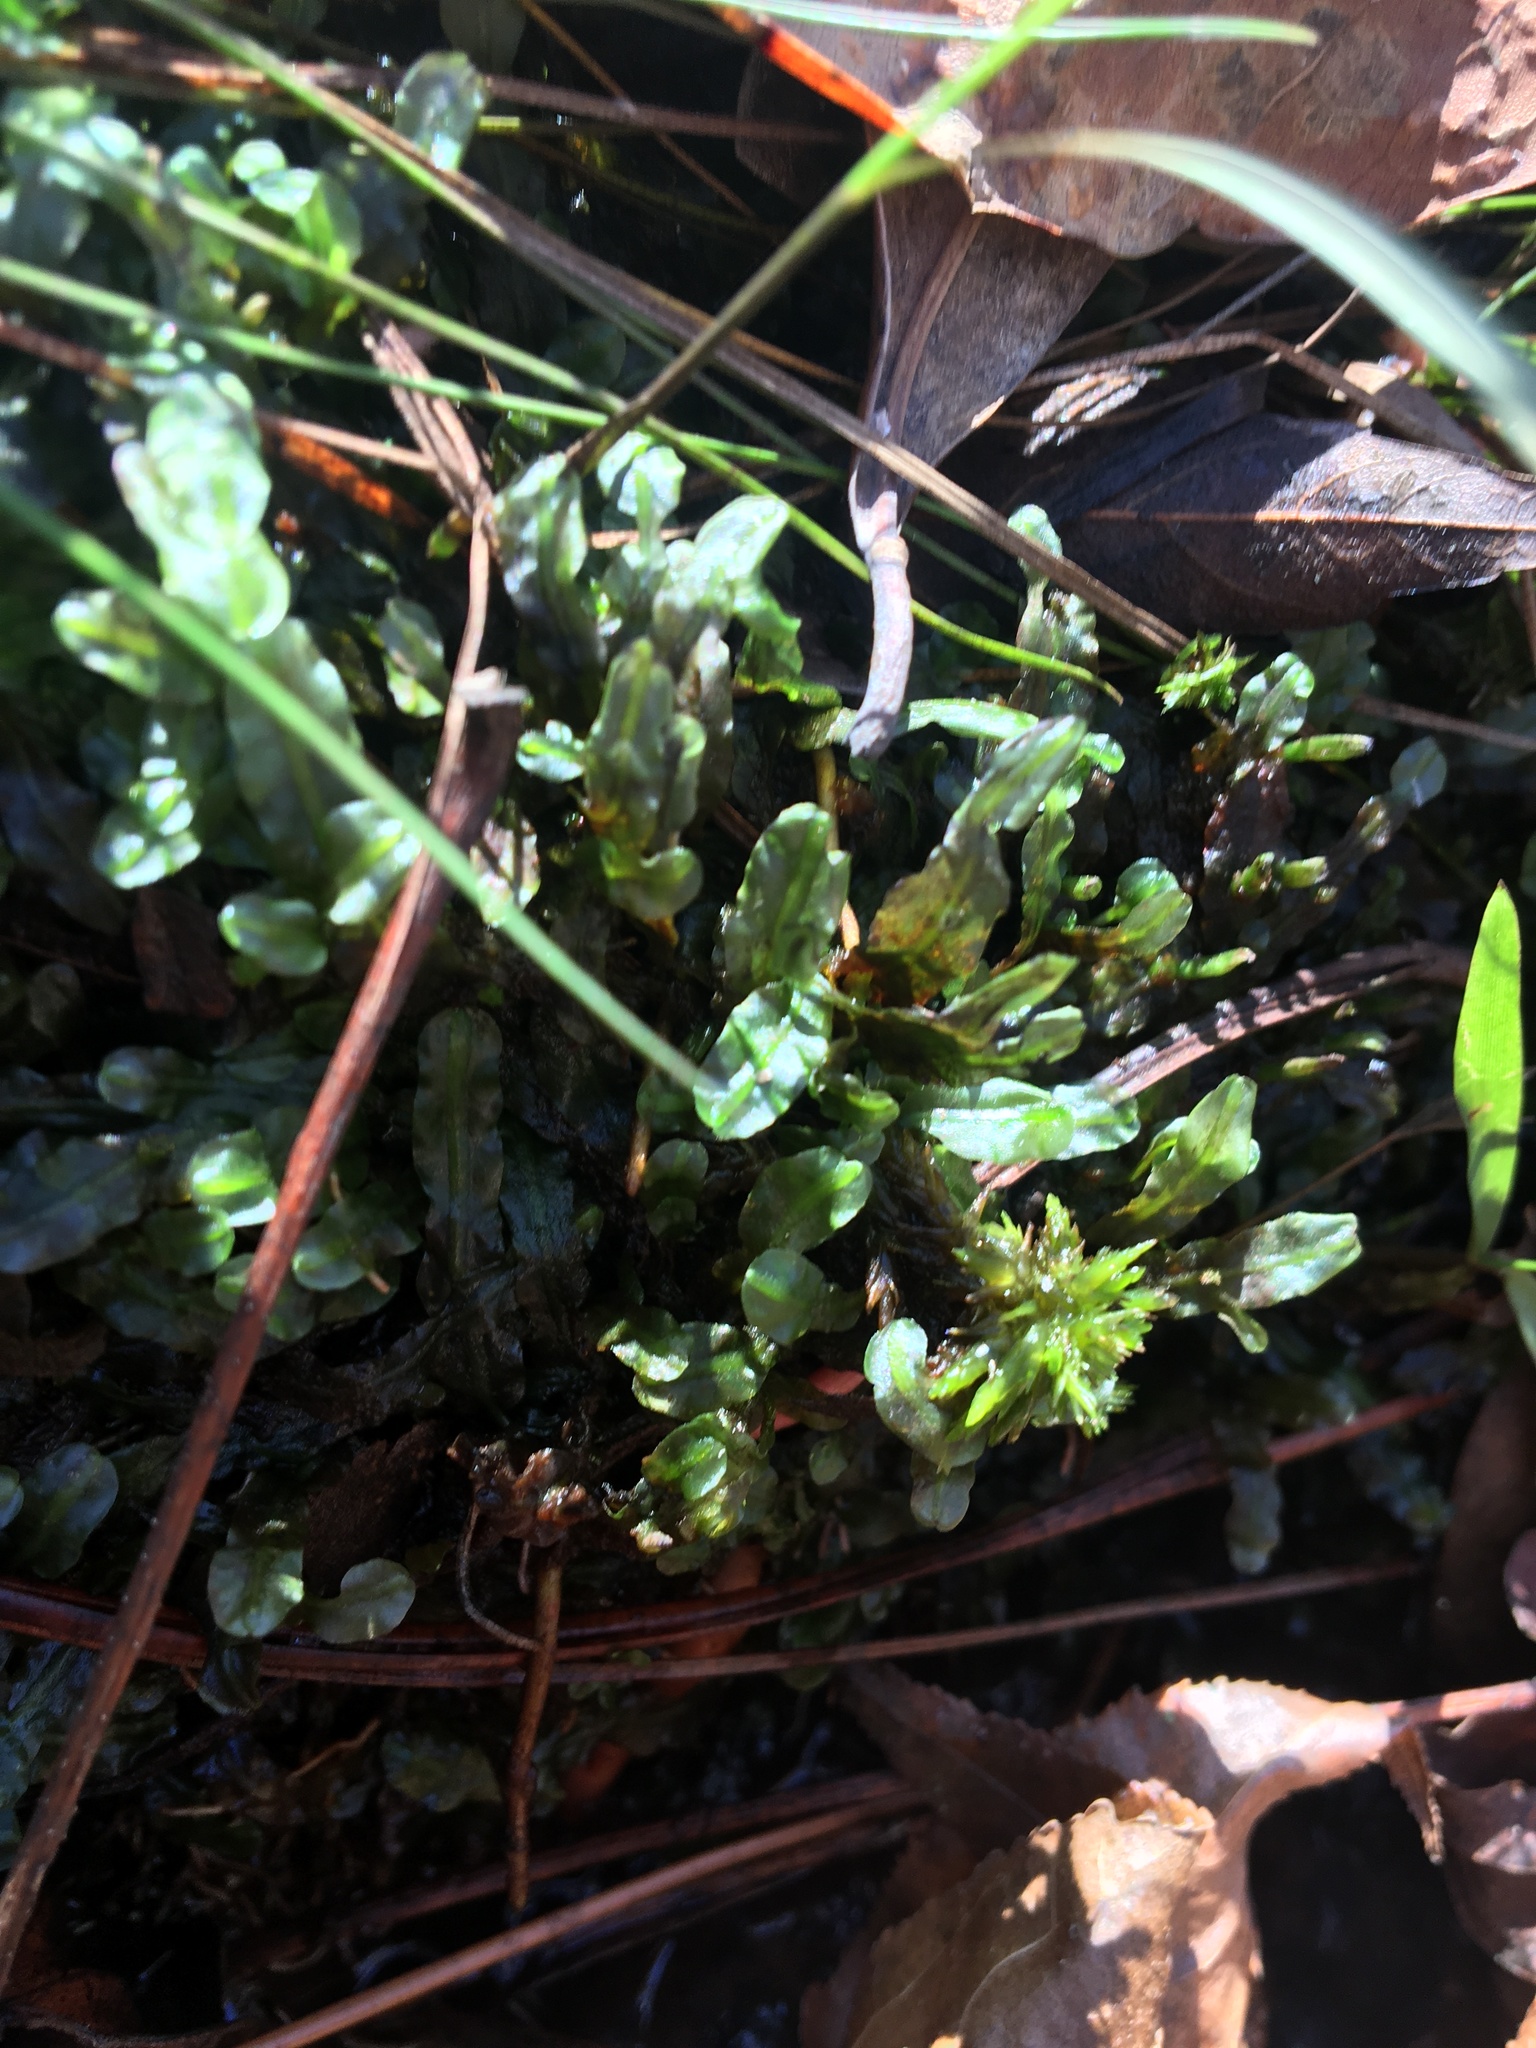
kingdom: Plantae
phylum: Marchantiophyta
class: Jungermanniopsida
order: Pallaviciniales
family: Pallaviciniaceae
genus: Pallavicinia
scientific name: Pallavicinia lyellii
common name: Veilwort
